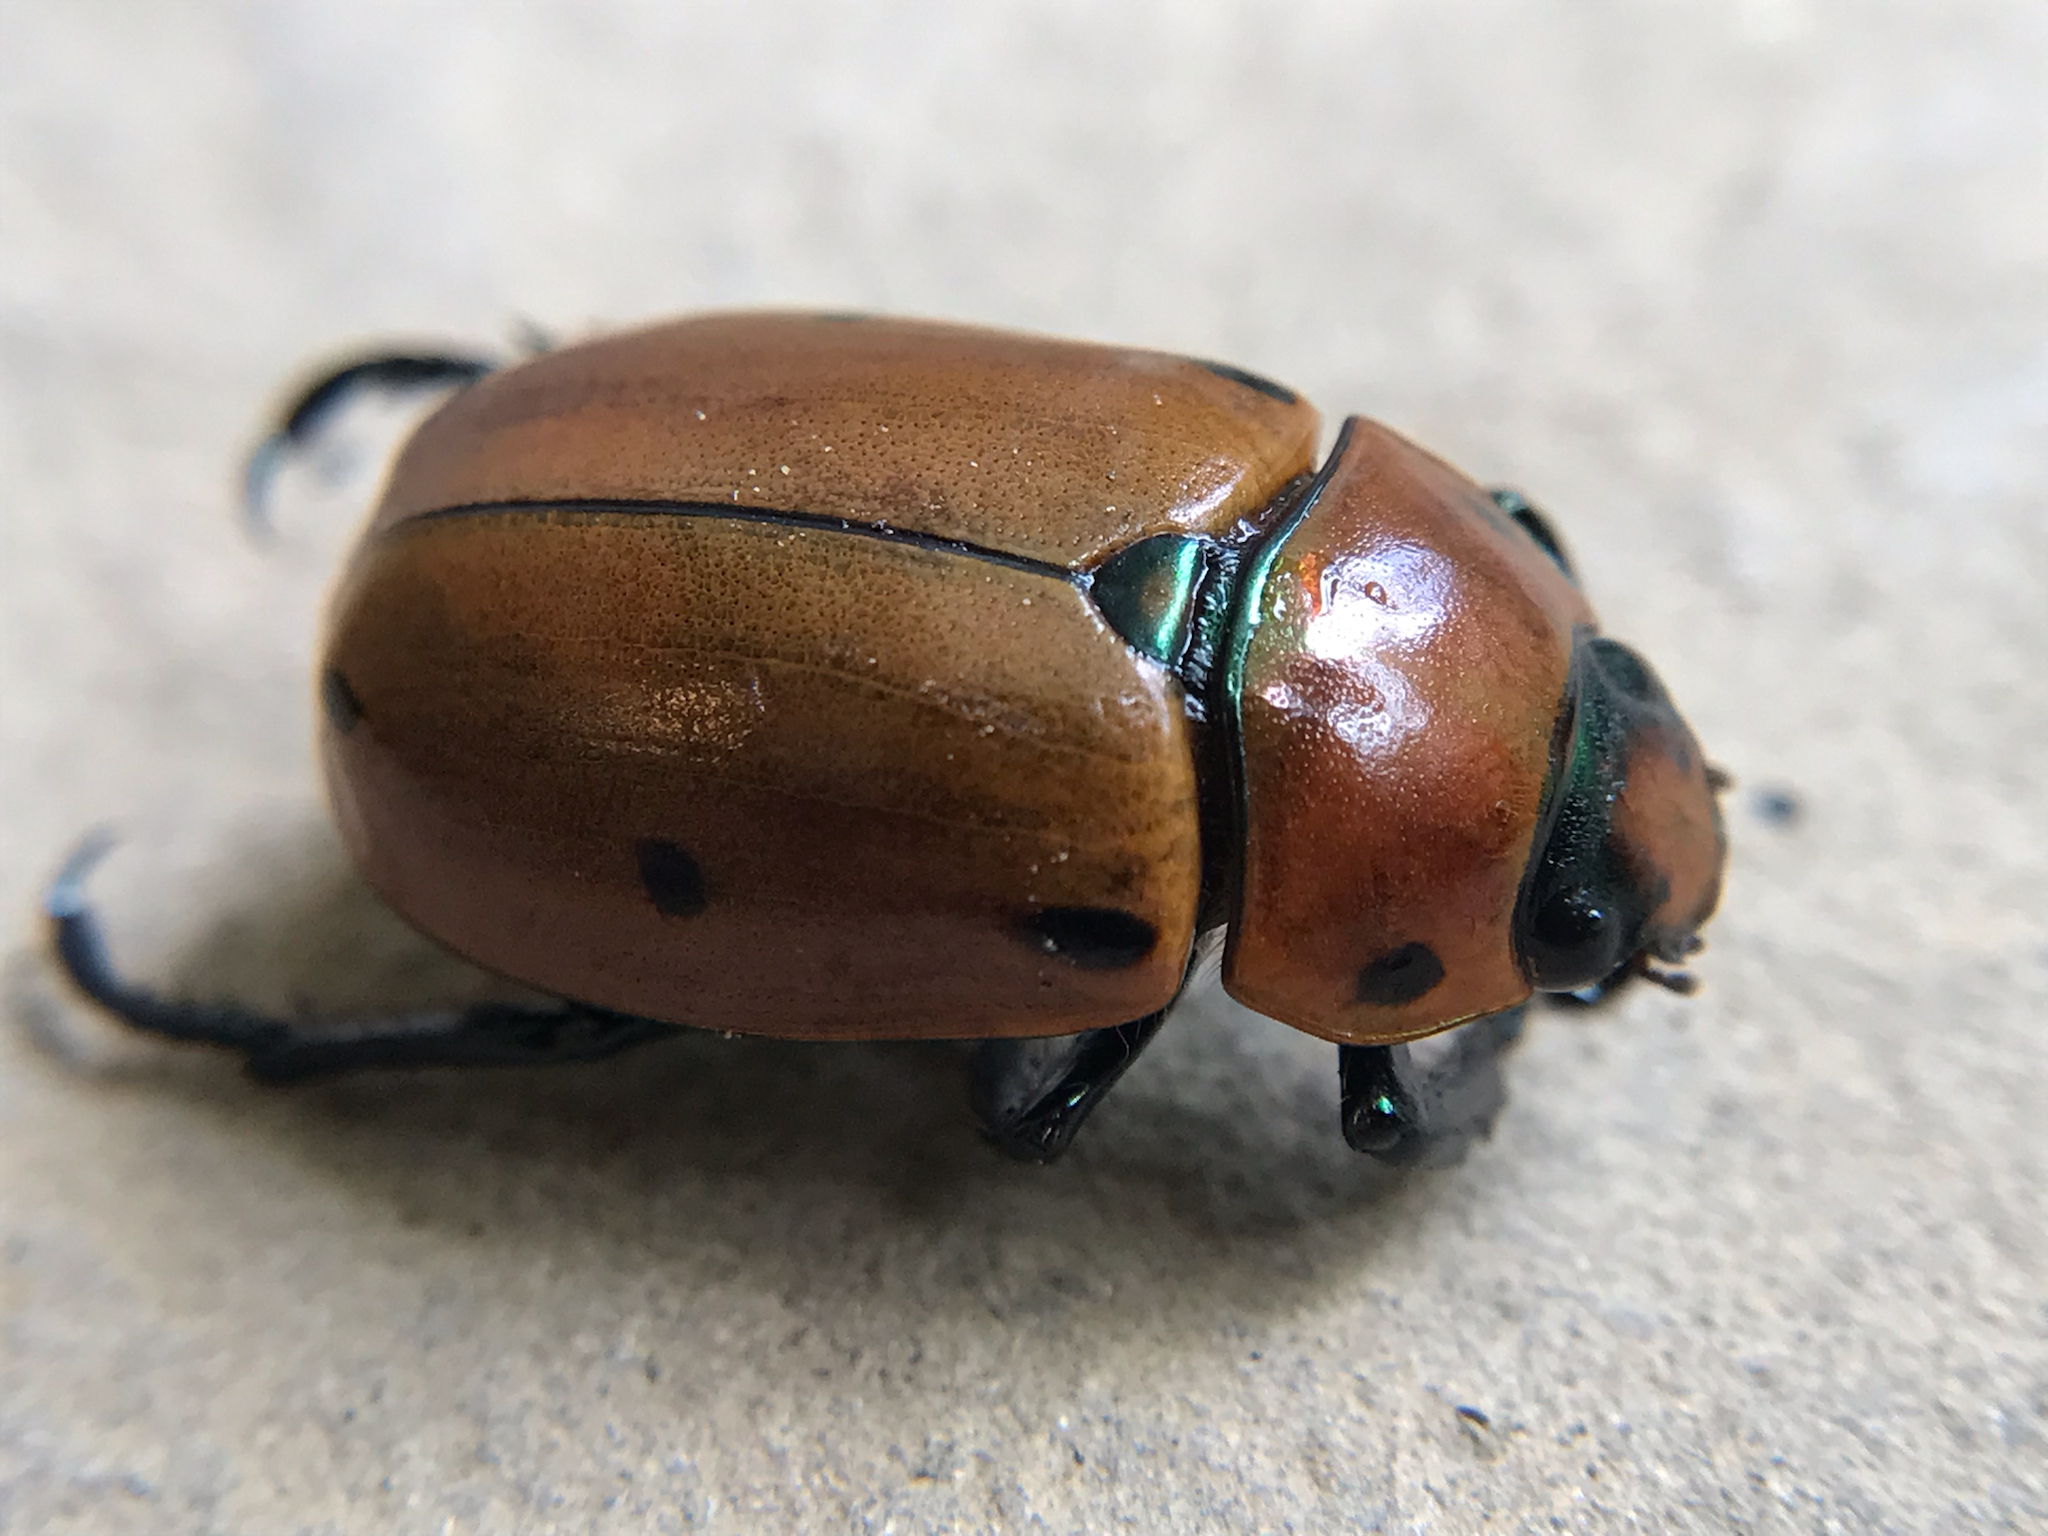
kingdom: Animalia
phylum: Arthropoda
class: Insecta
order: Coleoptera
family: Scarabaeidae
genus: Pelidnota
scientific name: Pelidnota punctata
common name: Grapevine beetle
